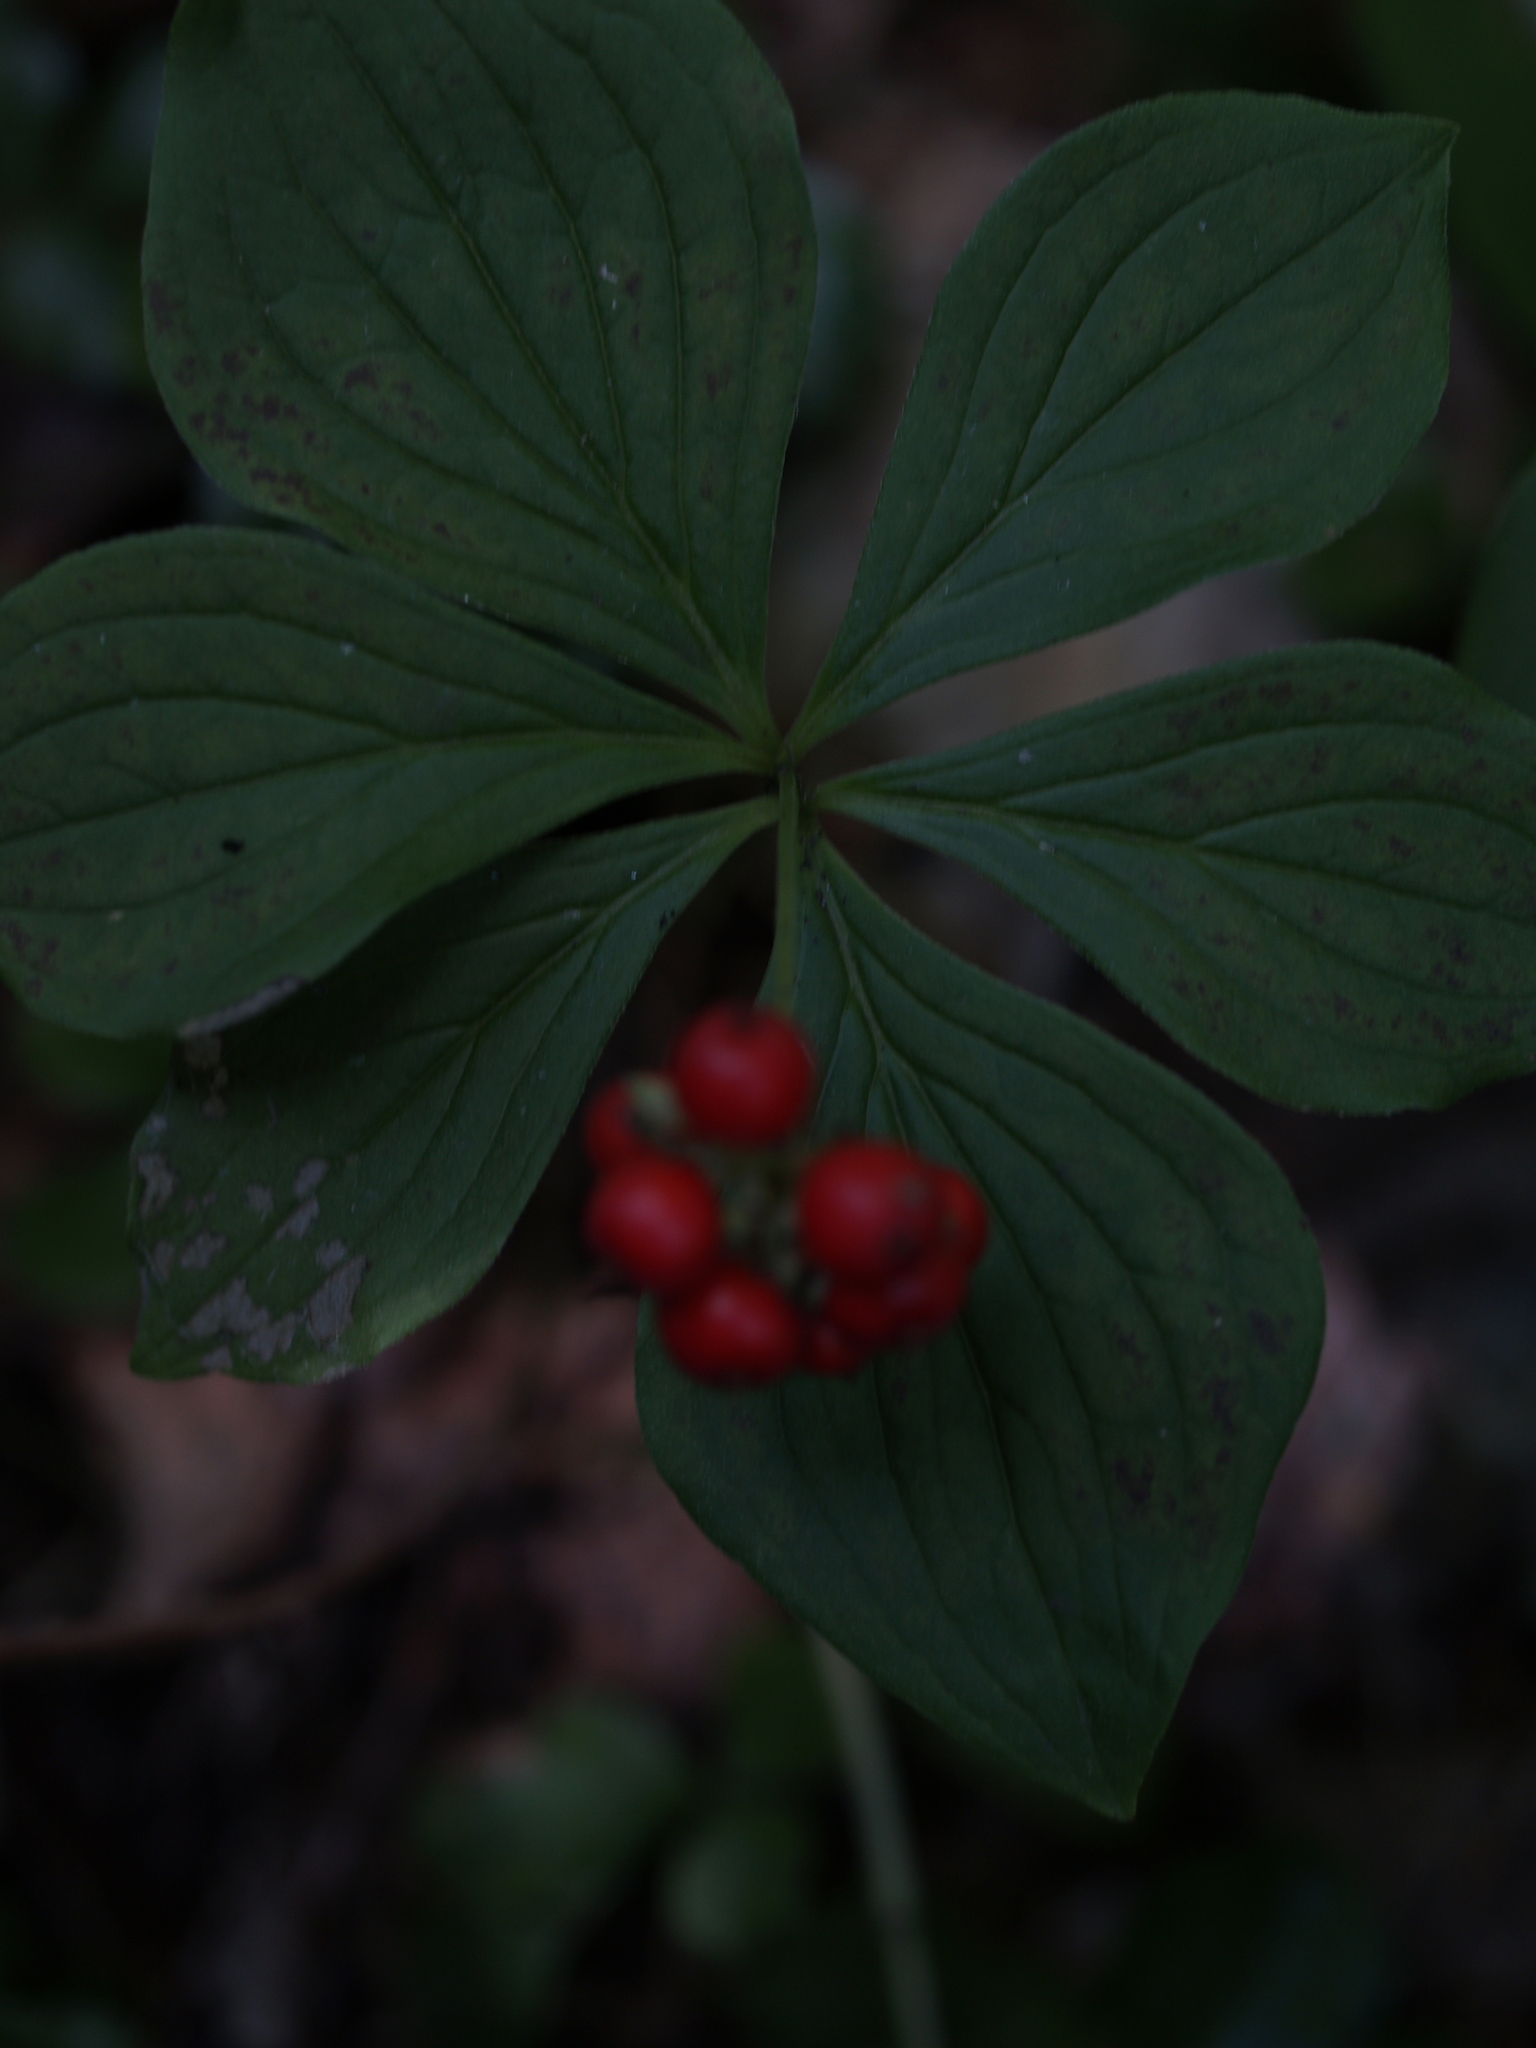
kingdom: Plantae
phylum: Tracheophyta
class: Magnoliopsida
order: Cornales
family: Cornaceae
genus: Cornus
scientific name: Cornus canadensis
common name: Creeping dogwood
